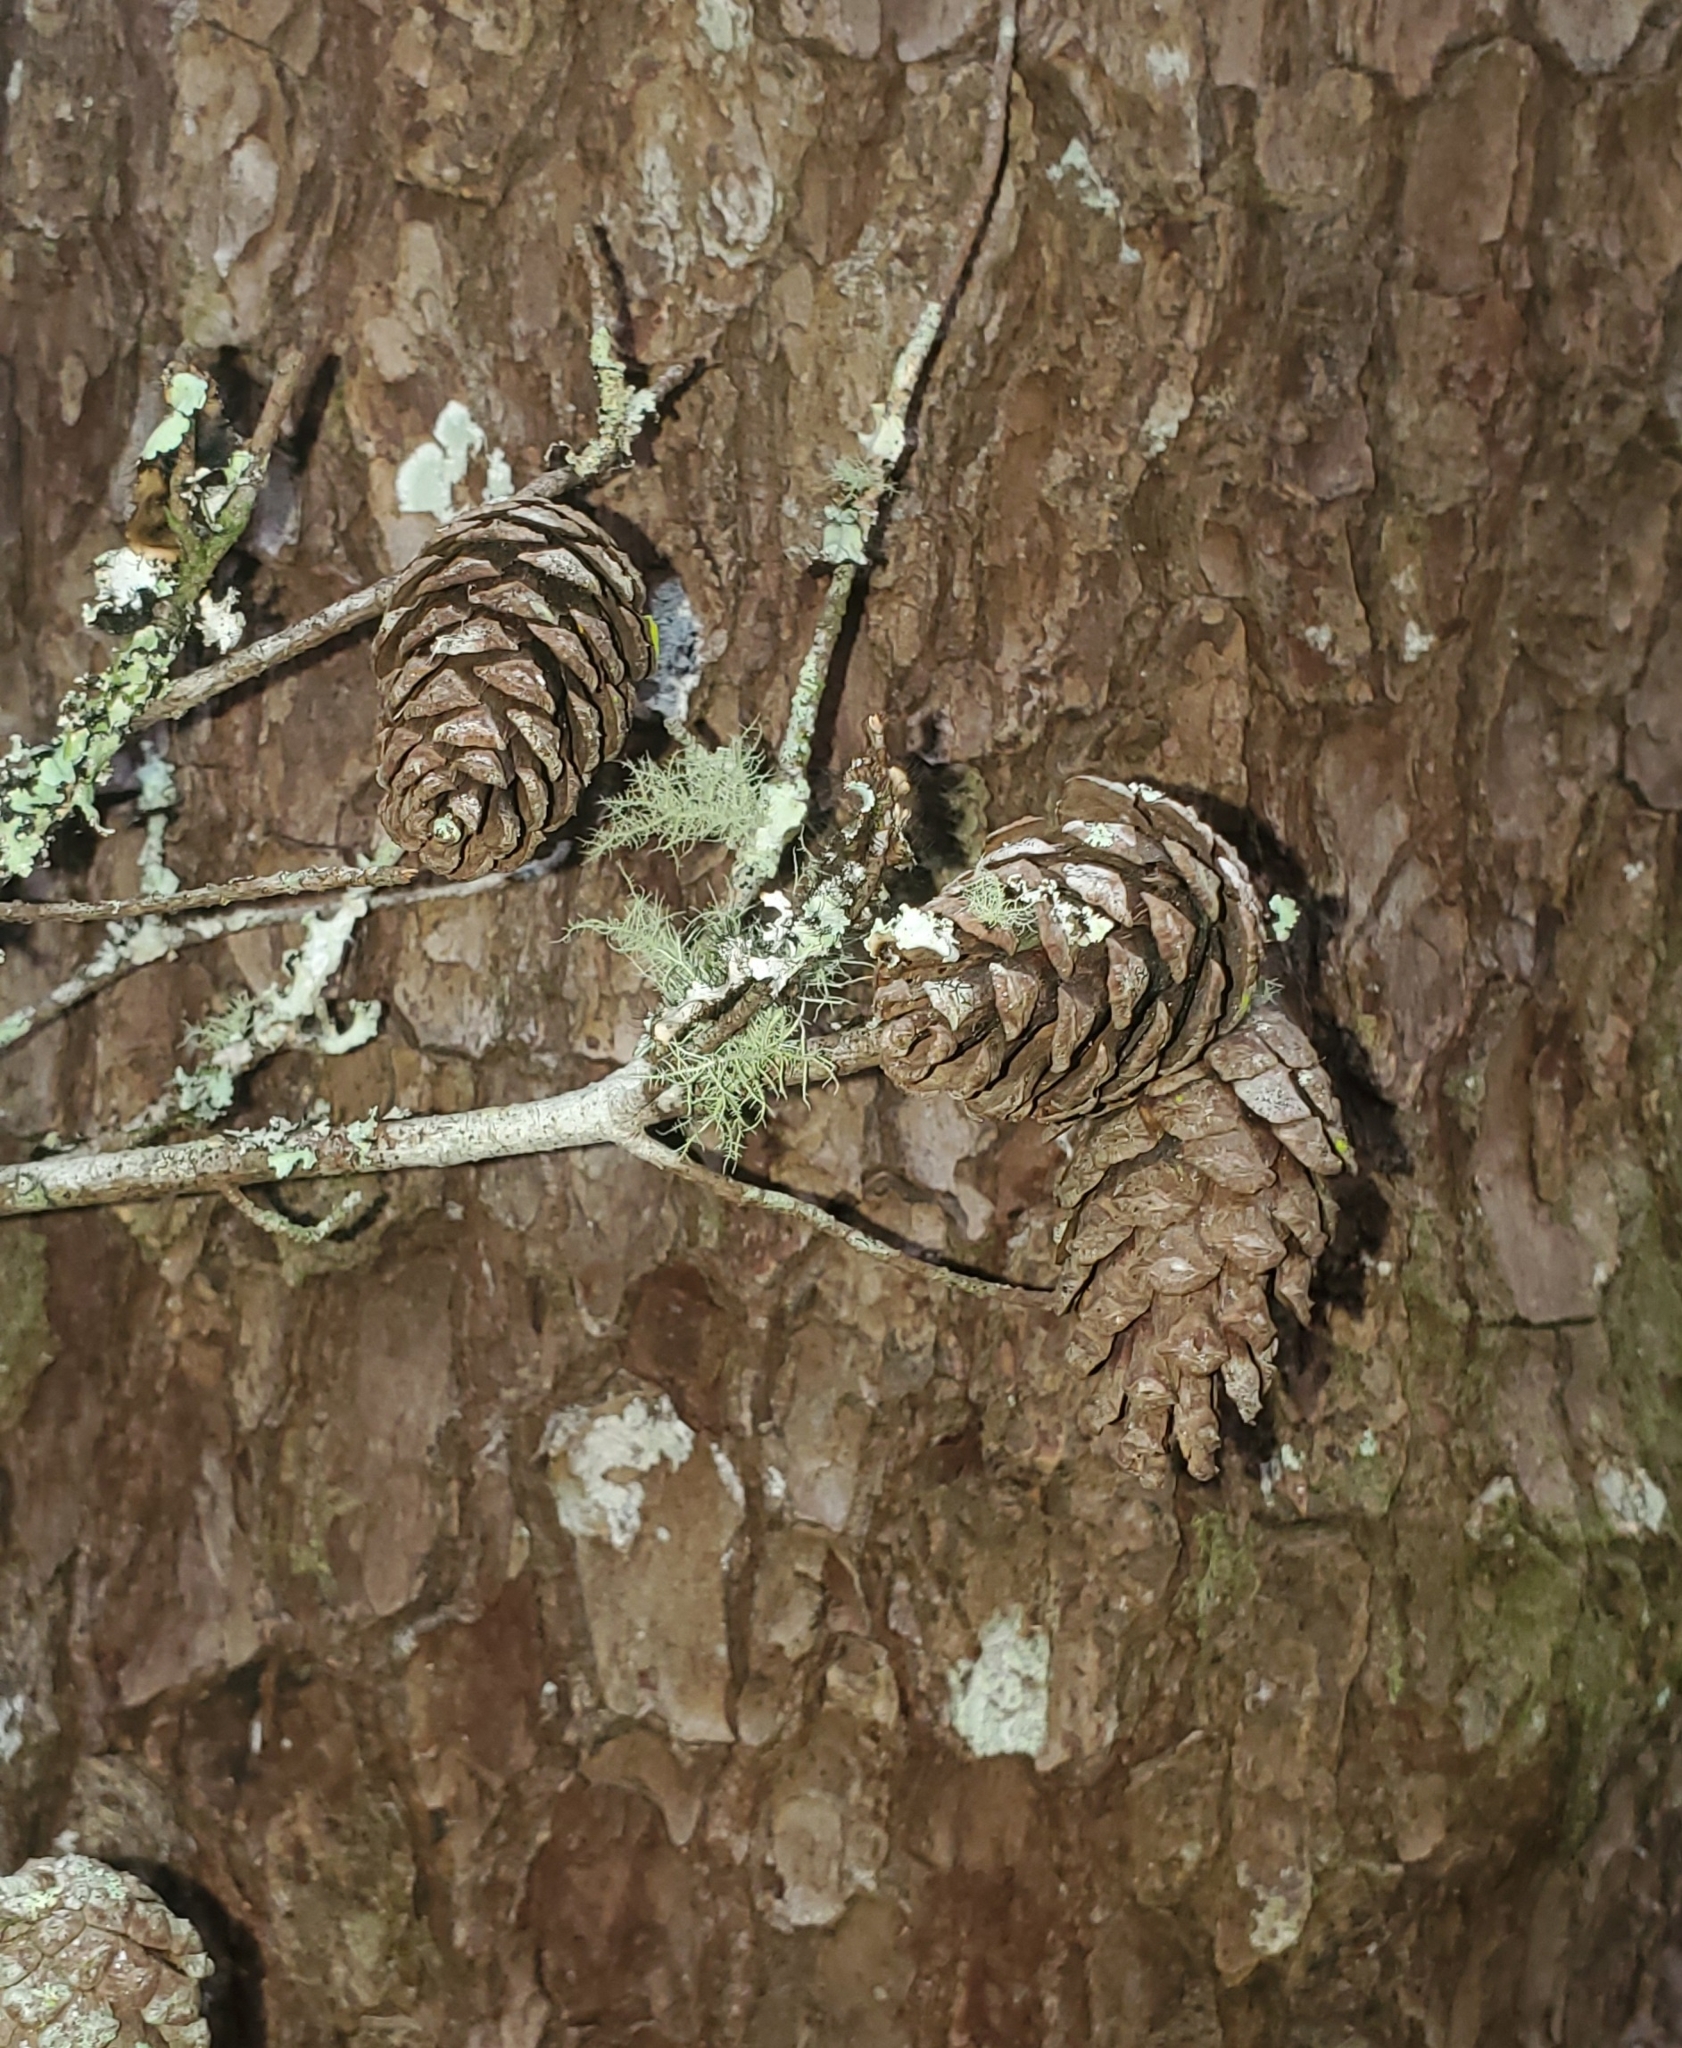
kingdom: Plantae
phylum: Tracheophyta
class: Pinopsida
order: Pinales
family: Pinaceae
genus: Pinus
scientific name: Pinus glabra
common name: Spruce pine
